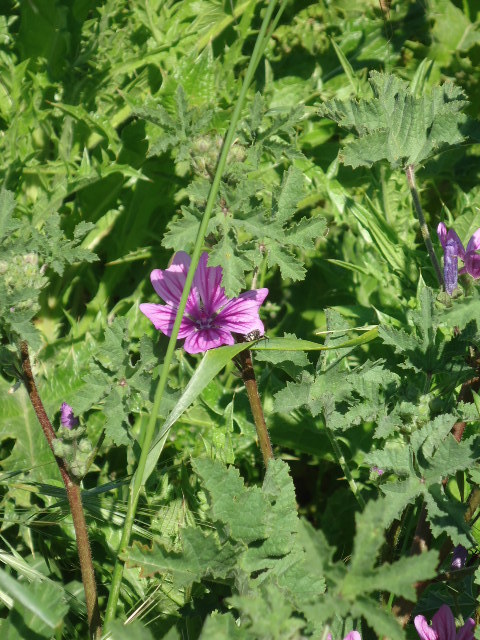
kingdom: Plantae
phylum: Tracheophyta
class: Magnoliopsida
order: Malvales
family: Malvaceae
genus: Malva
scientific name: Malva sylvestris
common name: Common mallow
